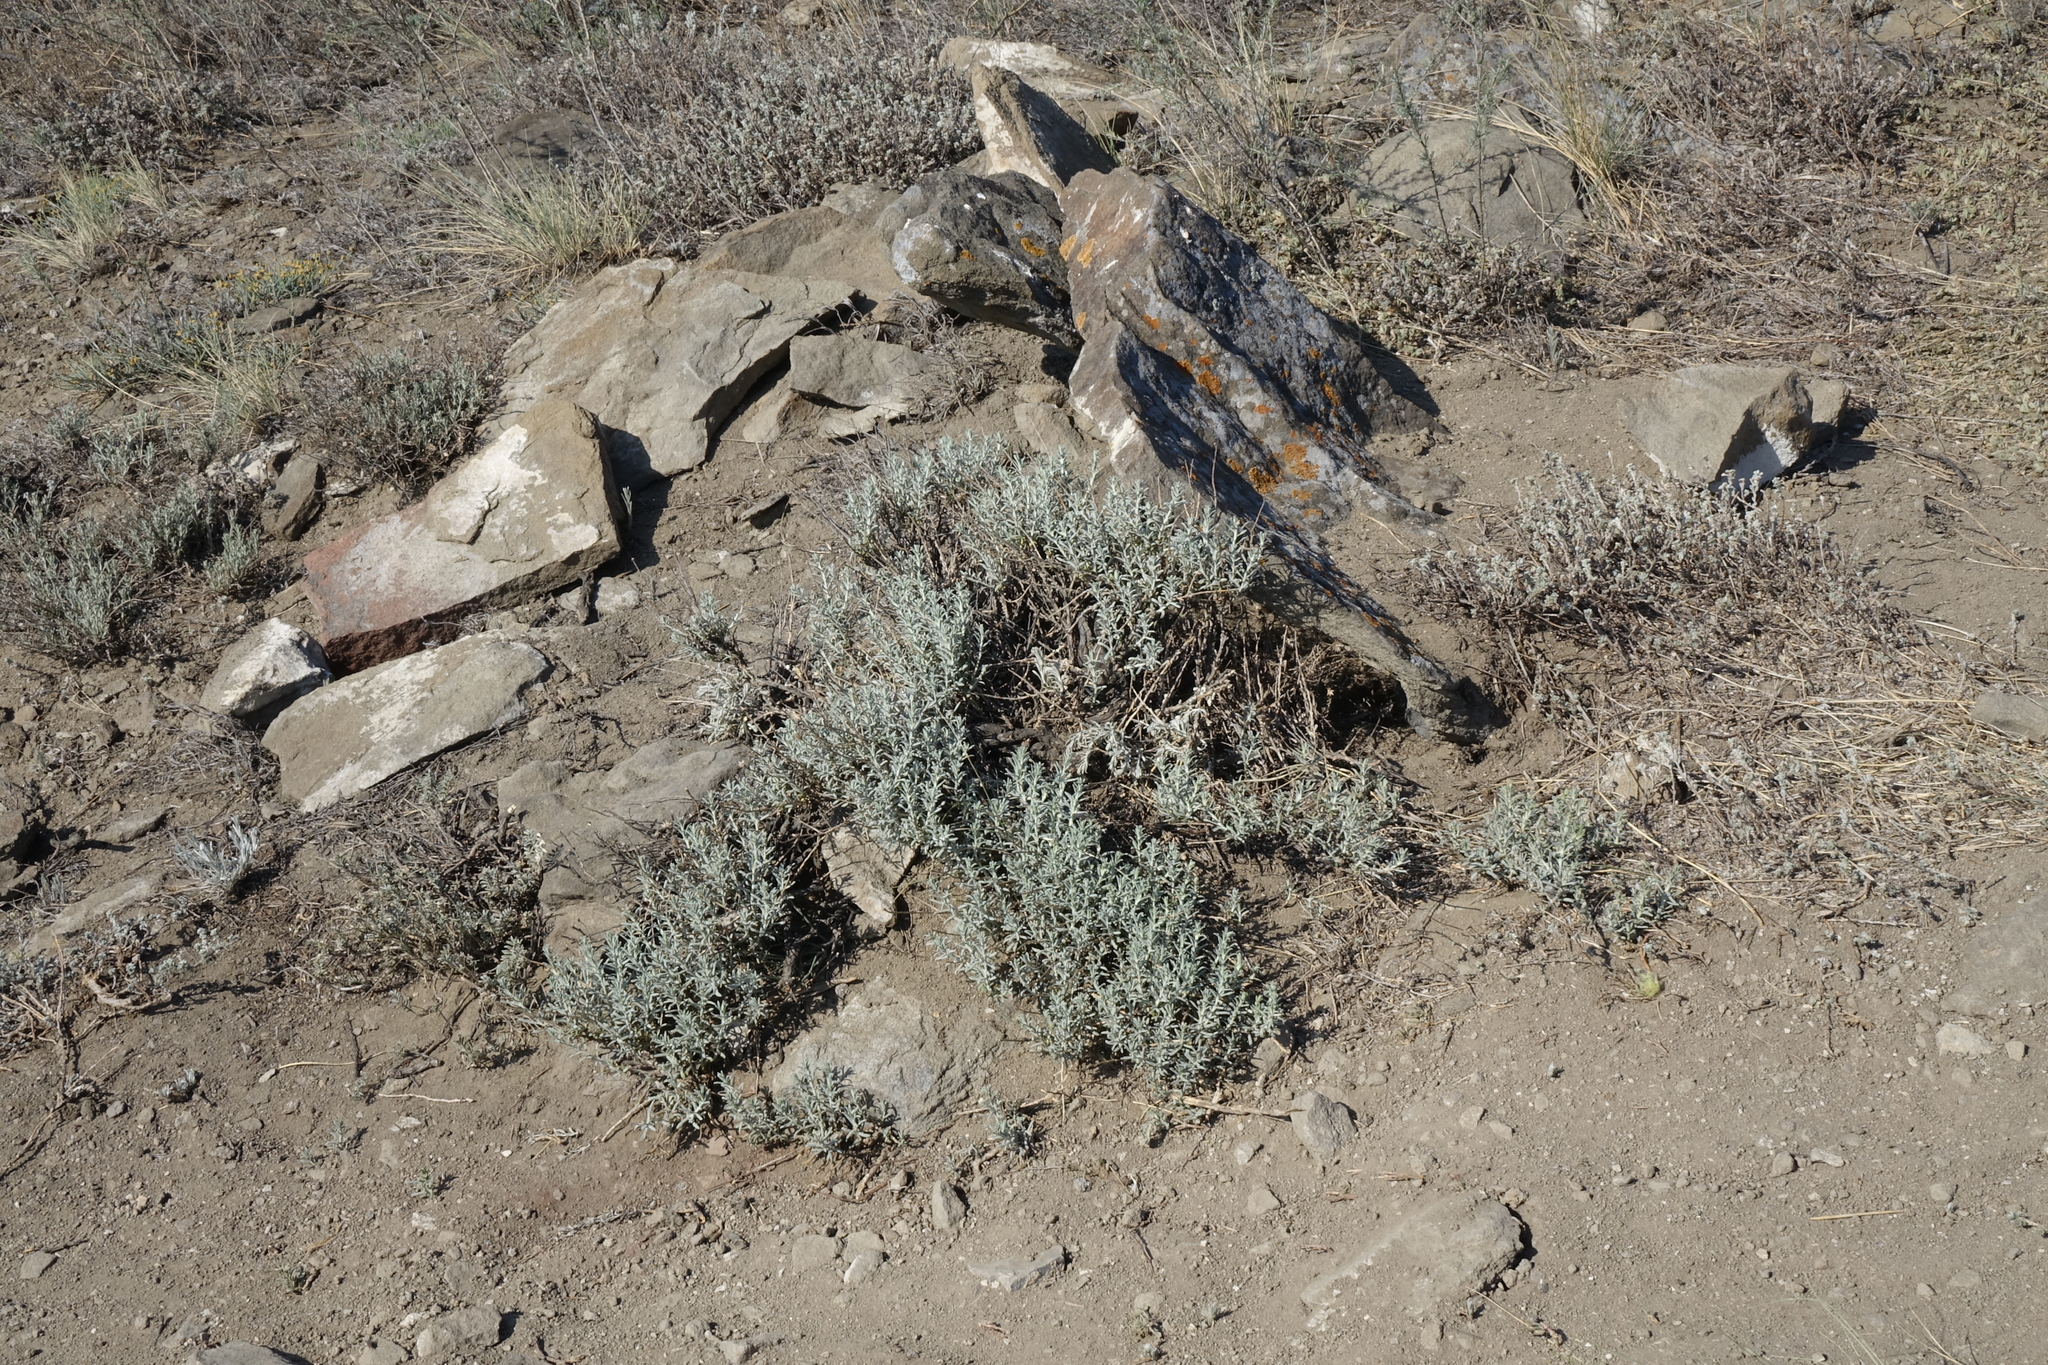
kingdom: Plantae
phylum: Tracheophyta
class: Magnoliopsida
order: Caryophyllales
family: Amaranthaceae
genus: Bassia
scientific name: Bassia prostrata
